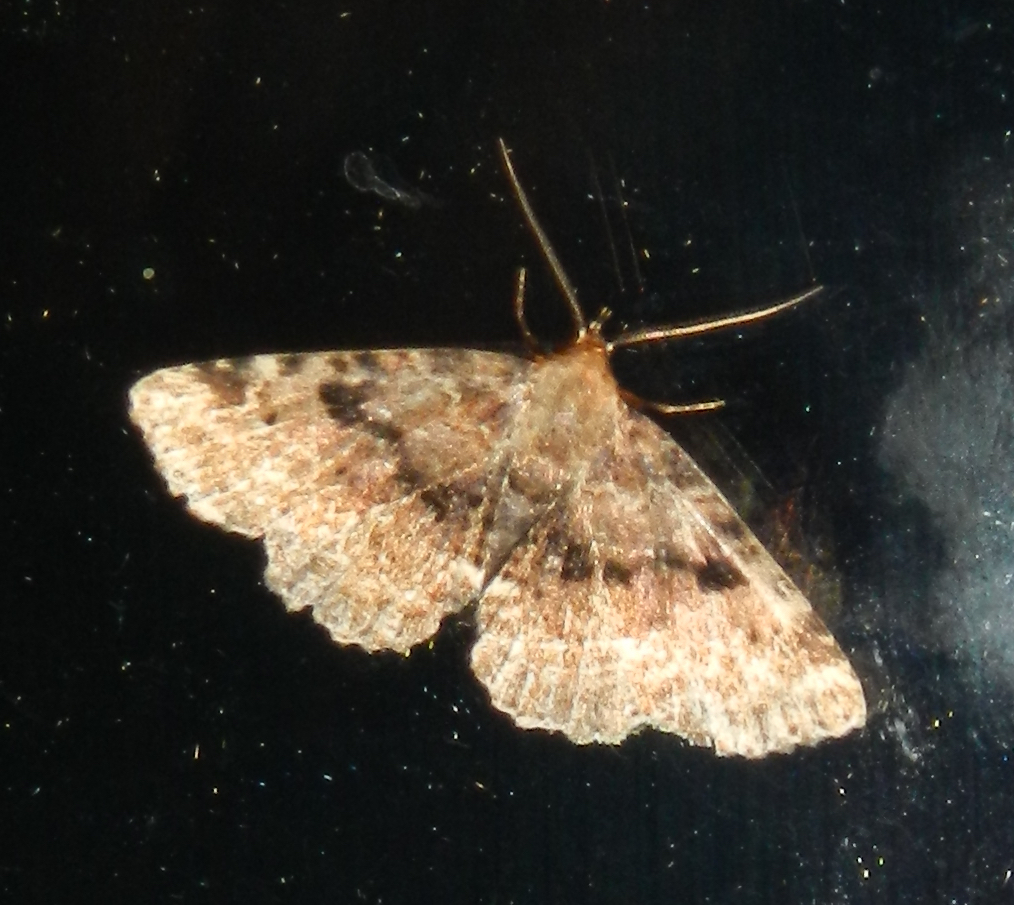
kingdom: Animalia
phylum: Arthropoda
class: Insecta
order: Lepidoptera
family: Erebidae
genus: Metalectra
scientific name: Metalectra quadrisignata
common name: Four-spotted fungus moth
